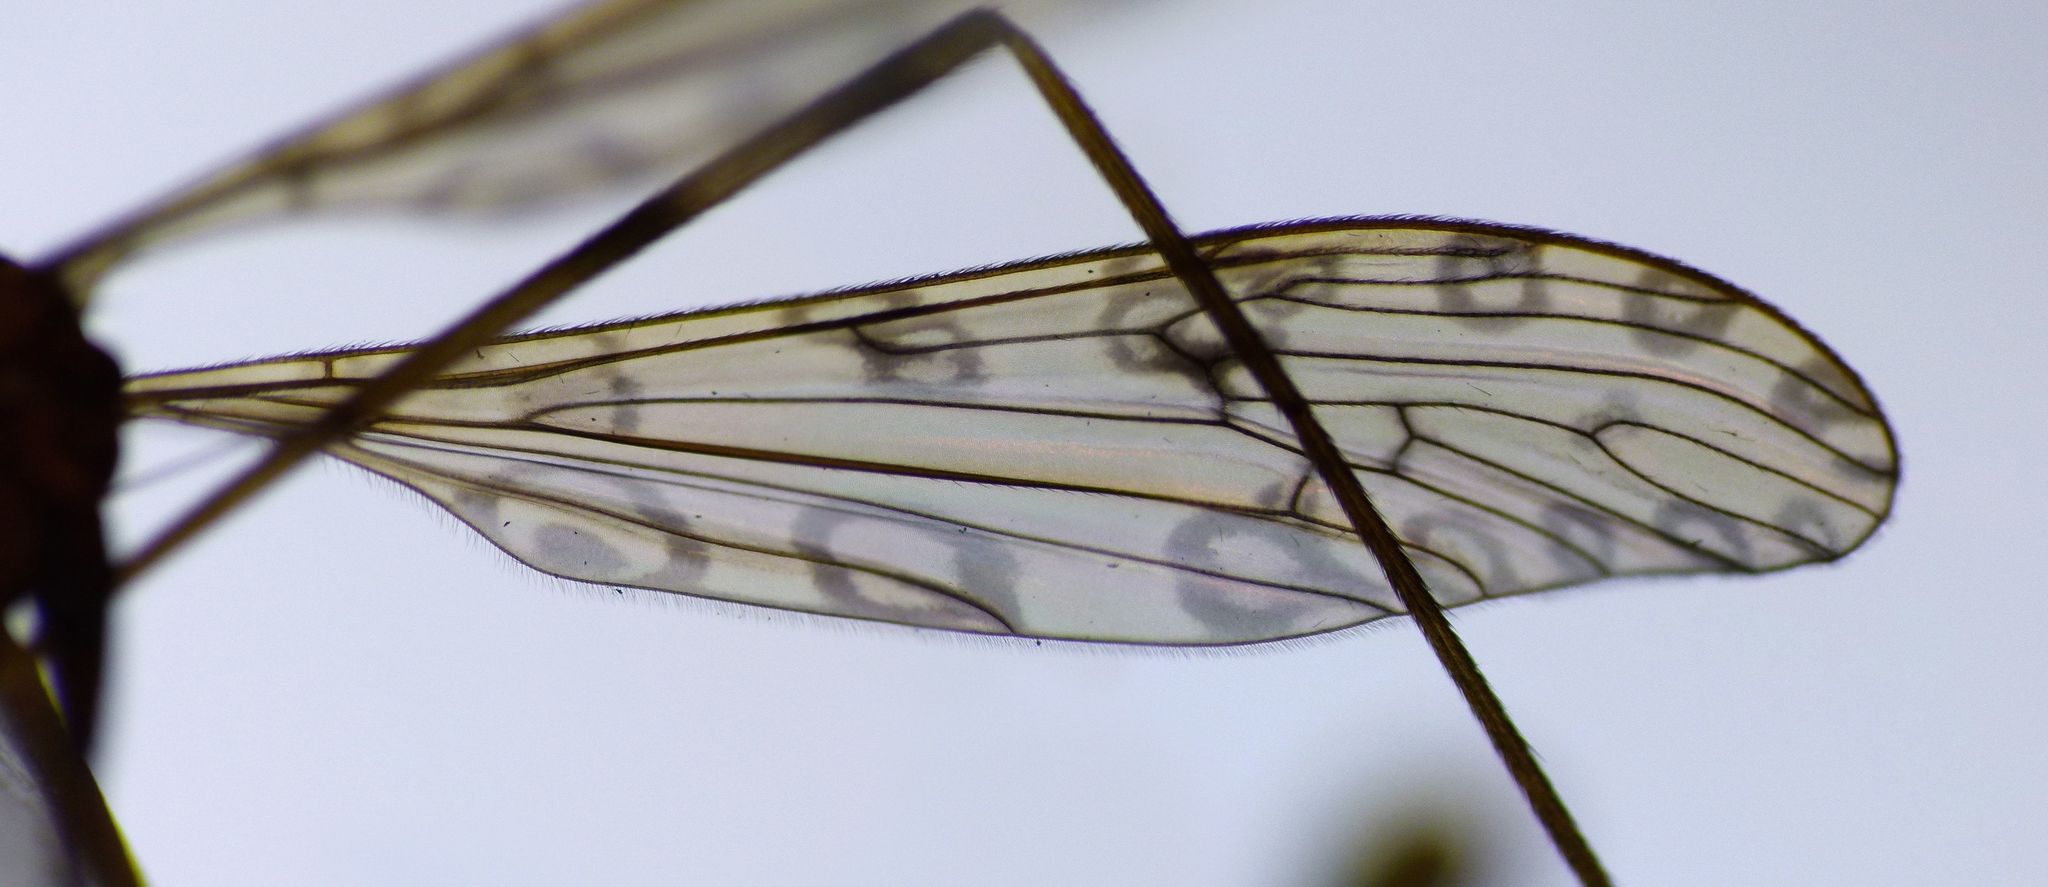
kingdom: Animalia
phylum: Arthropoda
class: Insecta
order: Diptera
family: Limoniidae
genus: Austrolimnophila
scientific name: Austrolimnophila stewartiae
